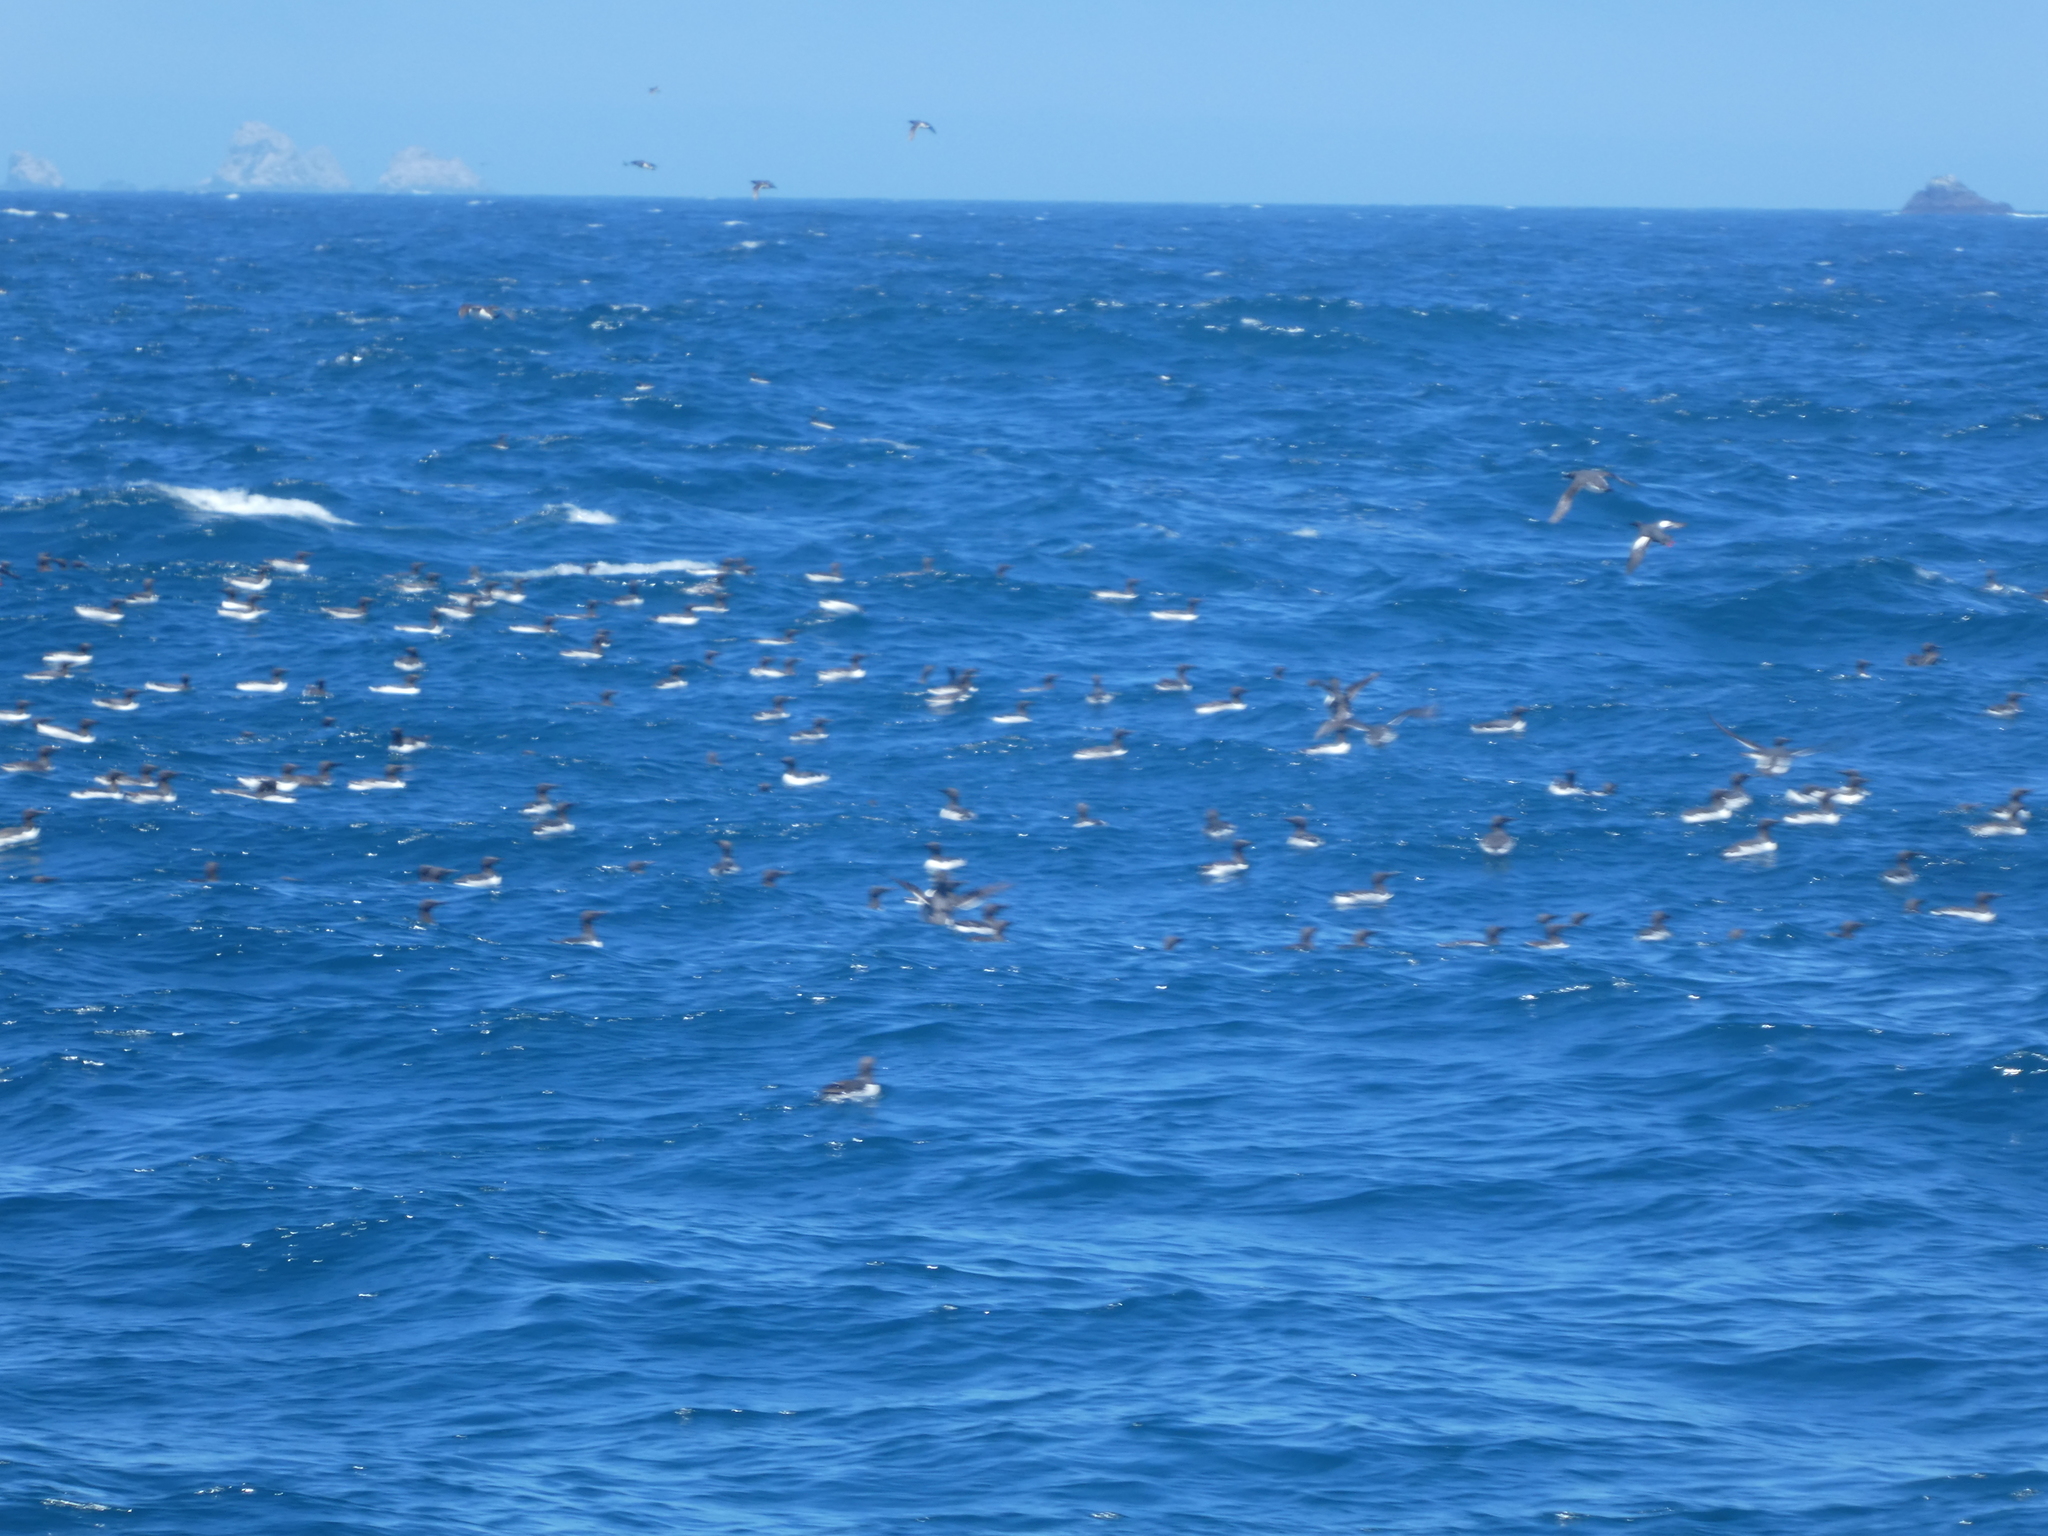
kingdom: Animalia
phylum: Chordata
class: Aves
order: Charadriiformes
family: Alcidae
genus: Uria
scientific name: Uria aalge
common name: Common murre
